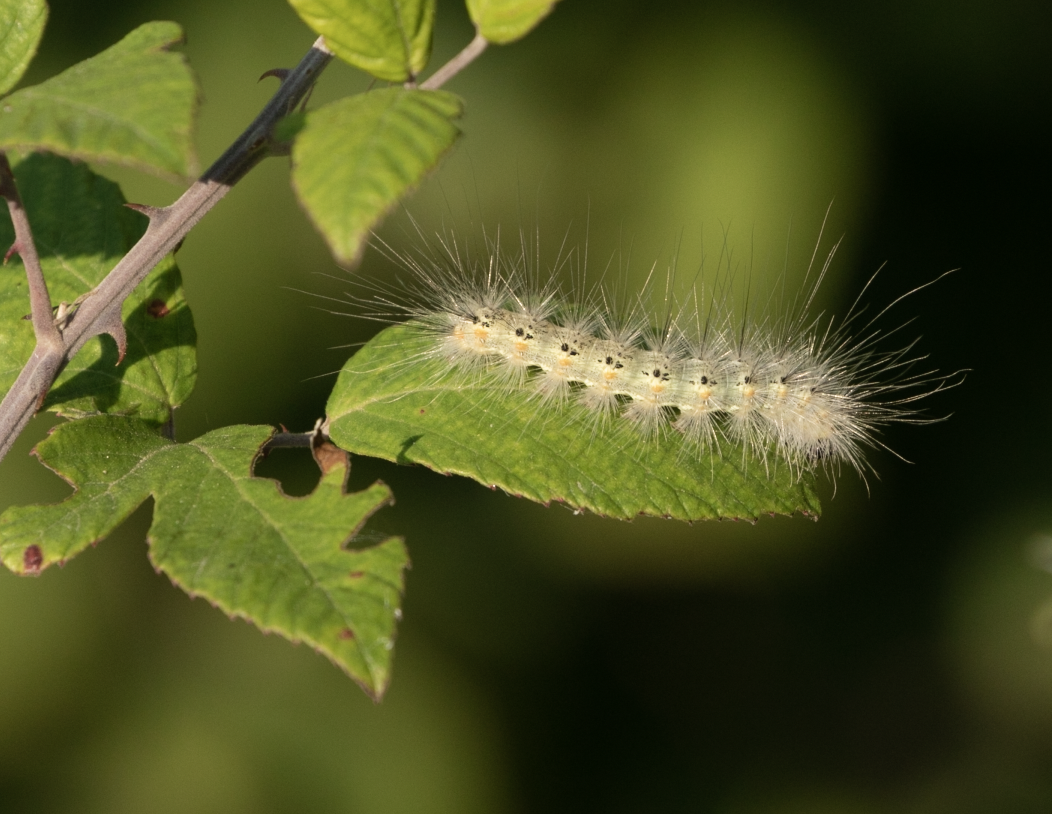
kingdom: Animalia
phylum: Arthropoda
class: Insecta
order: Lepidoptera
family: Erebidae
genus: Hyphantria
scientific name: Hyphantria cunea
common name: American white moth
